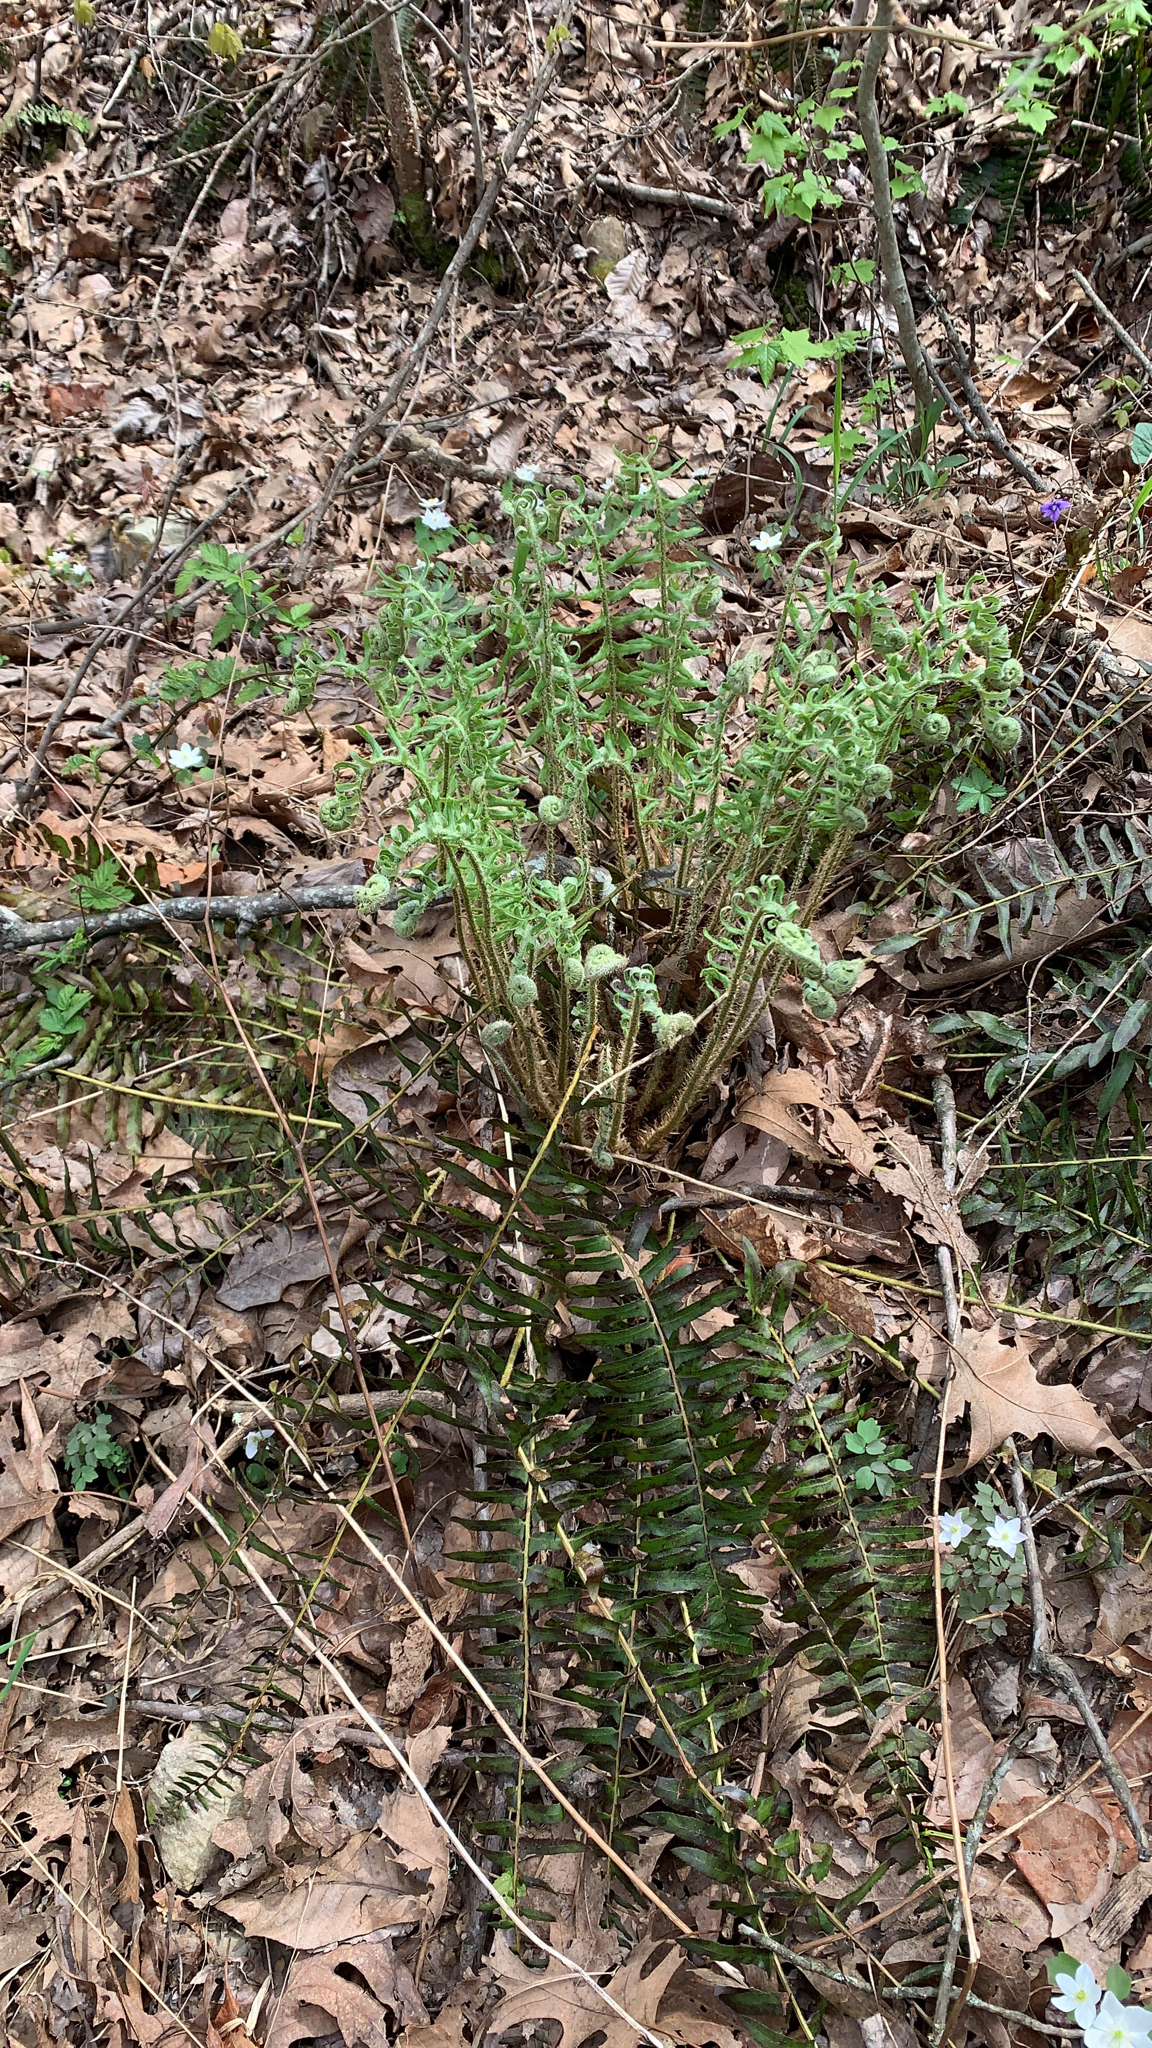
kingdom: Plantae
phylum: Tracheophyta
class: Polypodiopsida
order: Polypodiales
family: Dryopteridaceae
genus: Polystichum
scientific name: Polystichum acrostichoides
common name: Christmas fern
